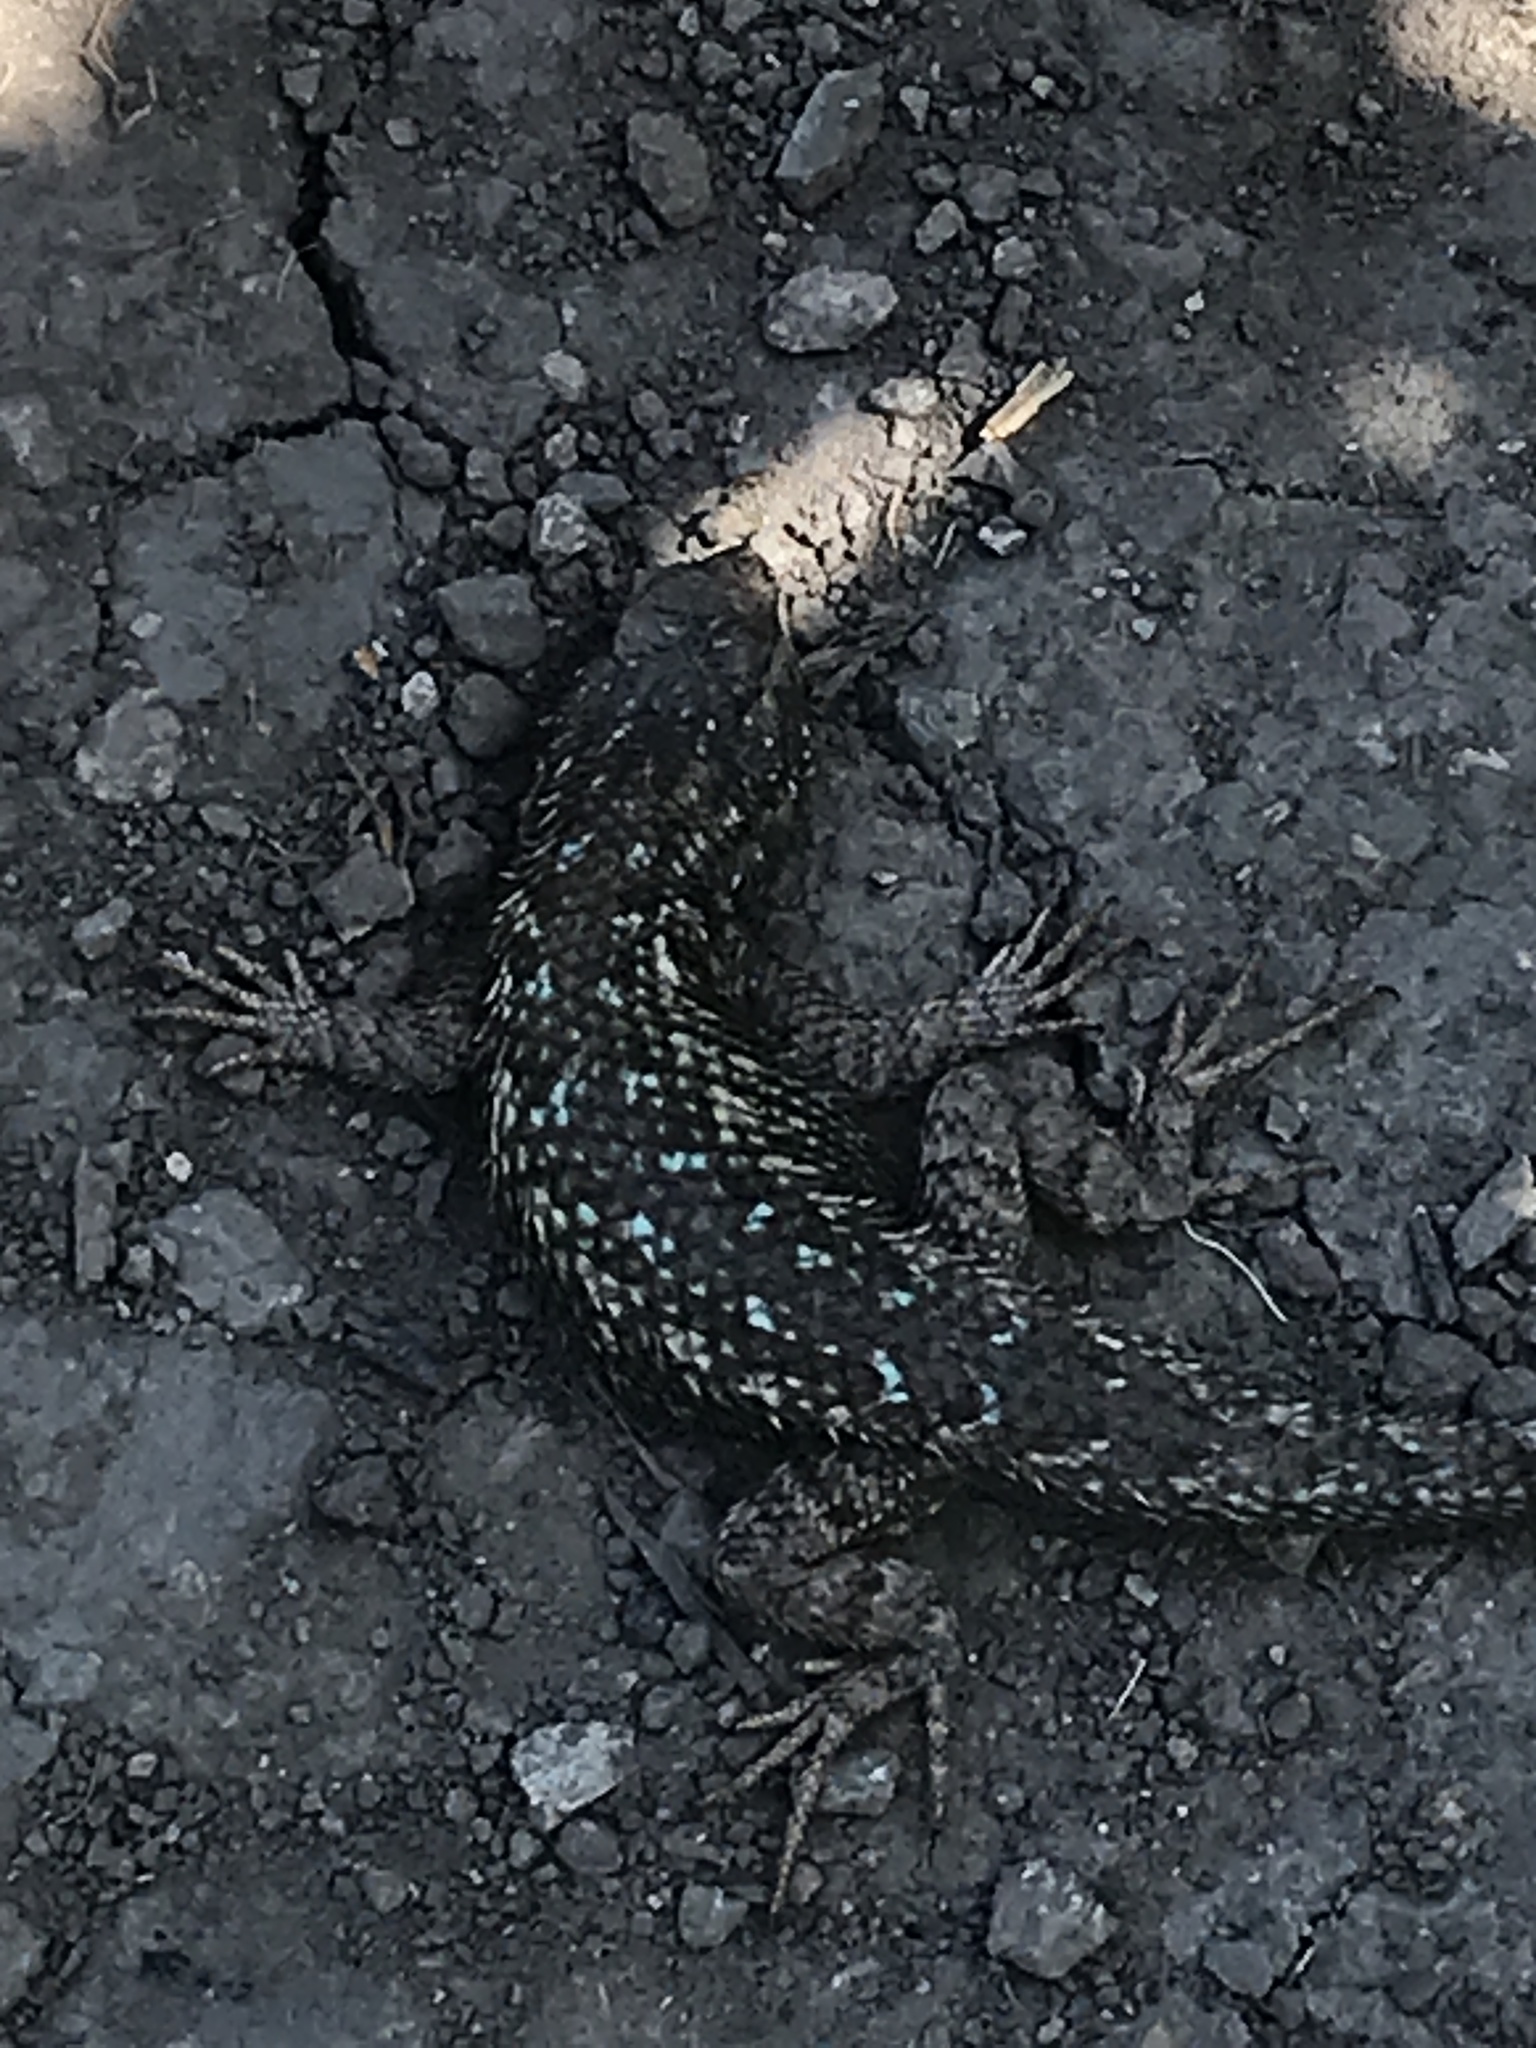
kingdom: Animalia
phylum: Chordata
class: Squamata
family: Phrynosomatidae
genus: Sceloporus
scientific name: Sceloporus occidentalis
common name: Western fence lizard
